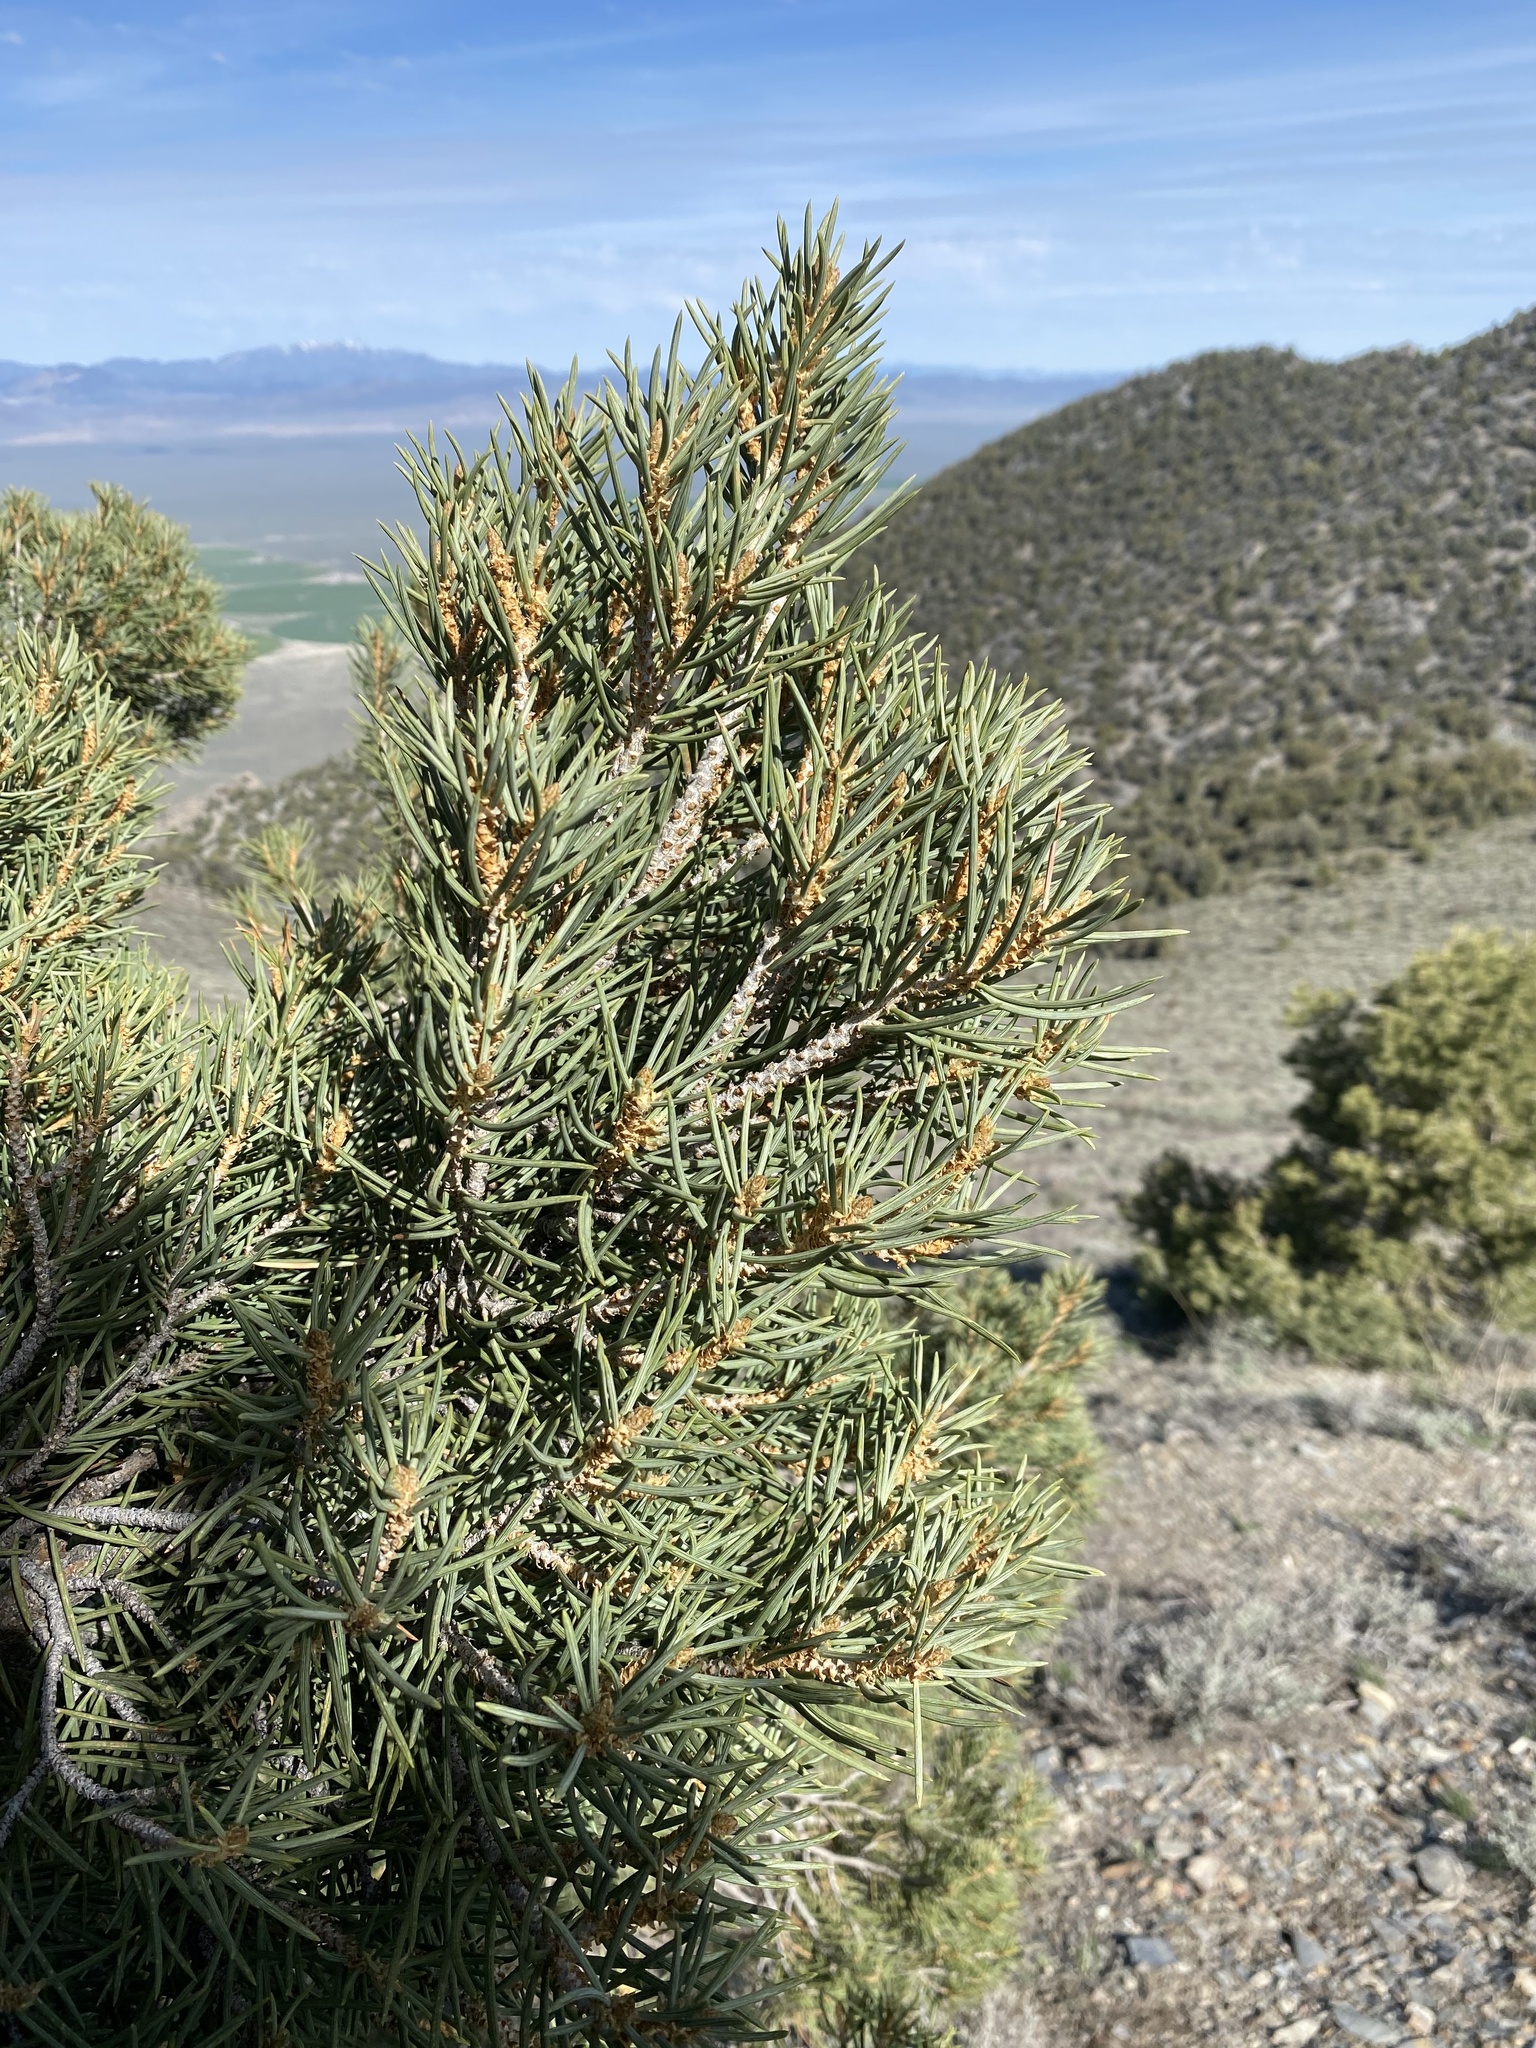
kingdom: Plantae
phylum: Tracheophyta
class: Pinopsida
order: Pinales
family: Pinaceae
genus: Pinus
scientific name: Pinus monophylla
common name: One-leaved nut pine
